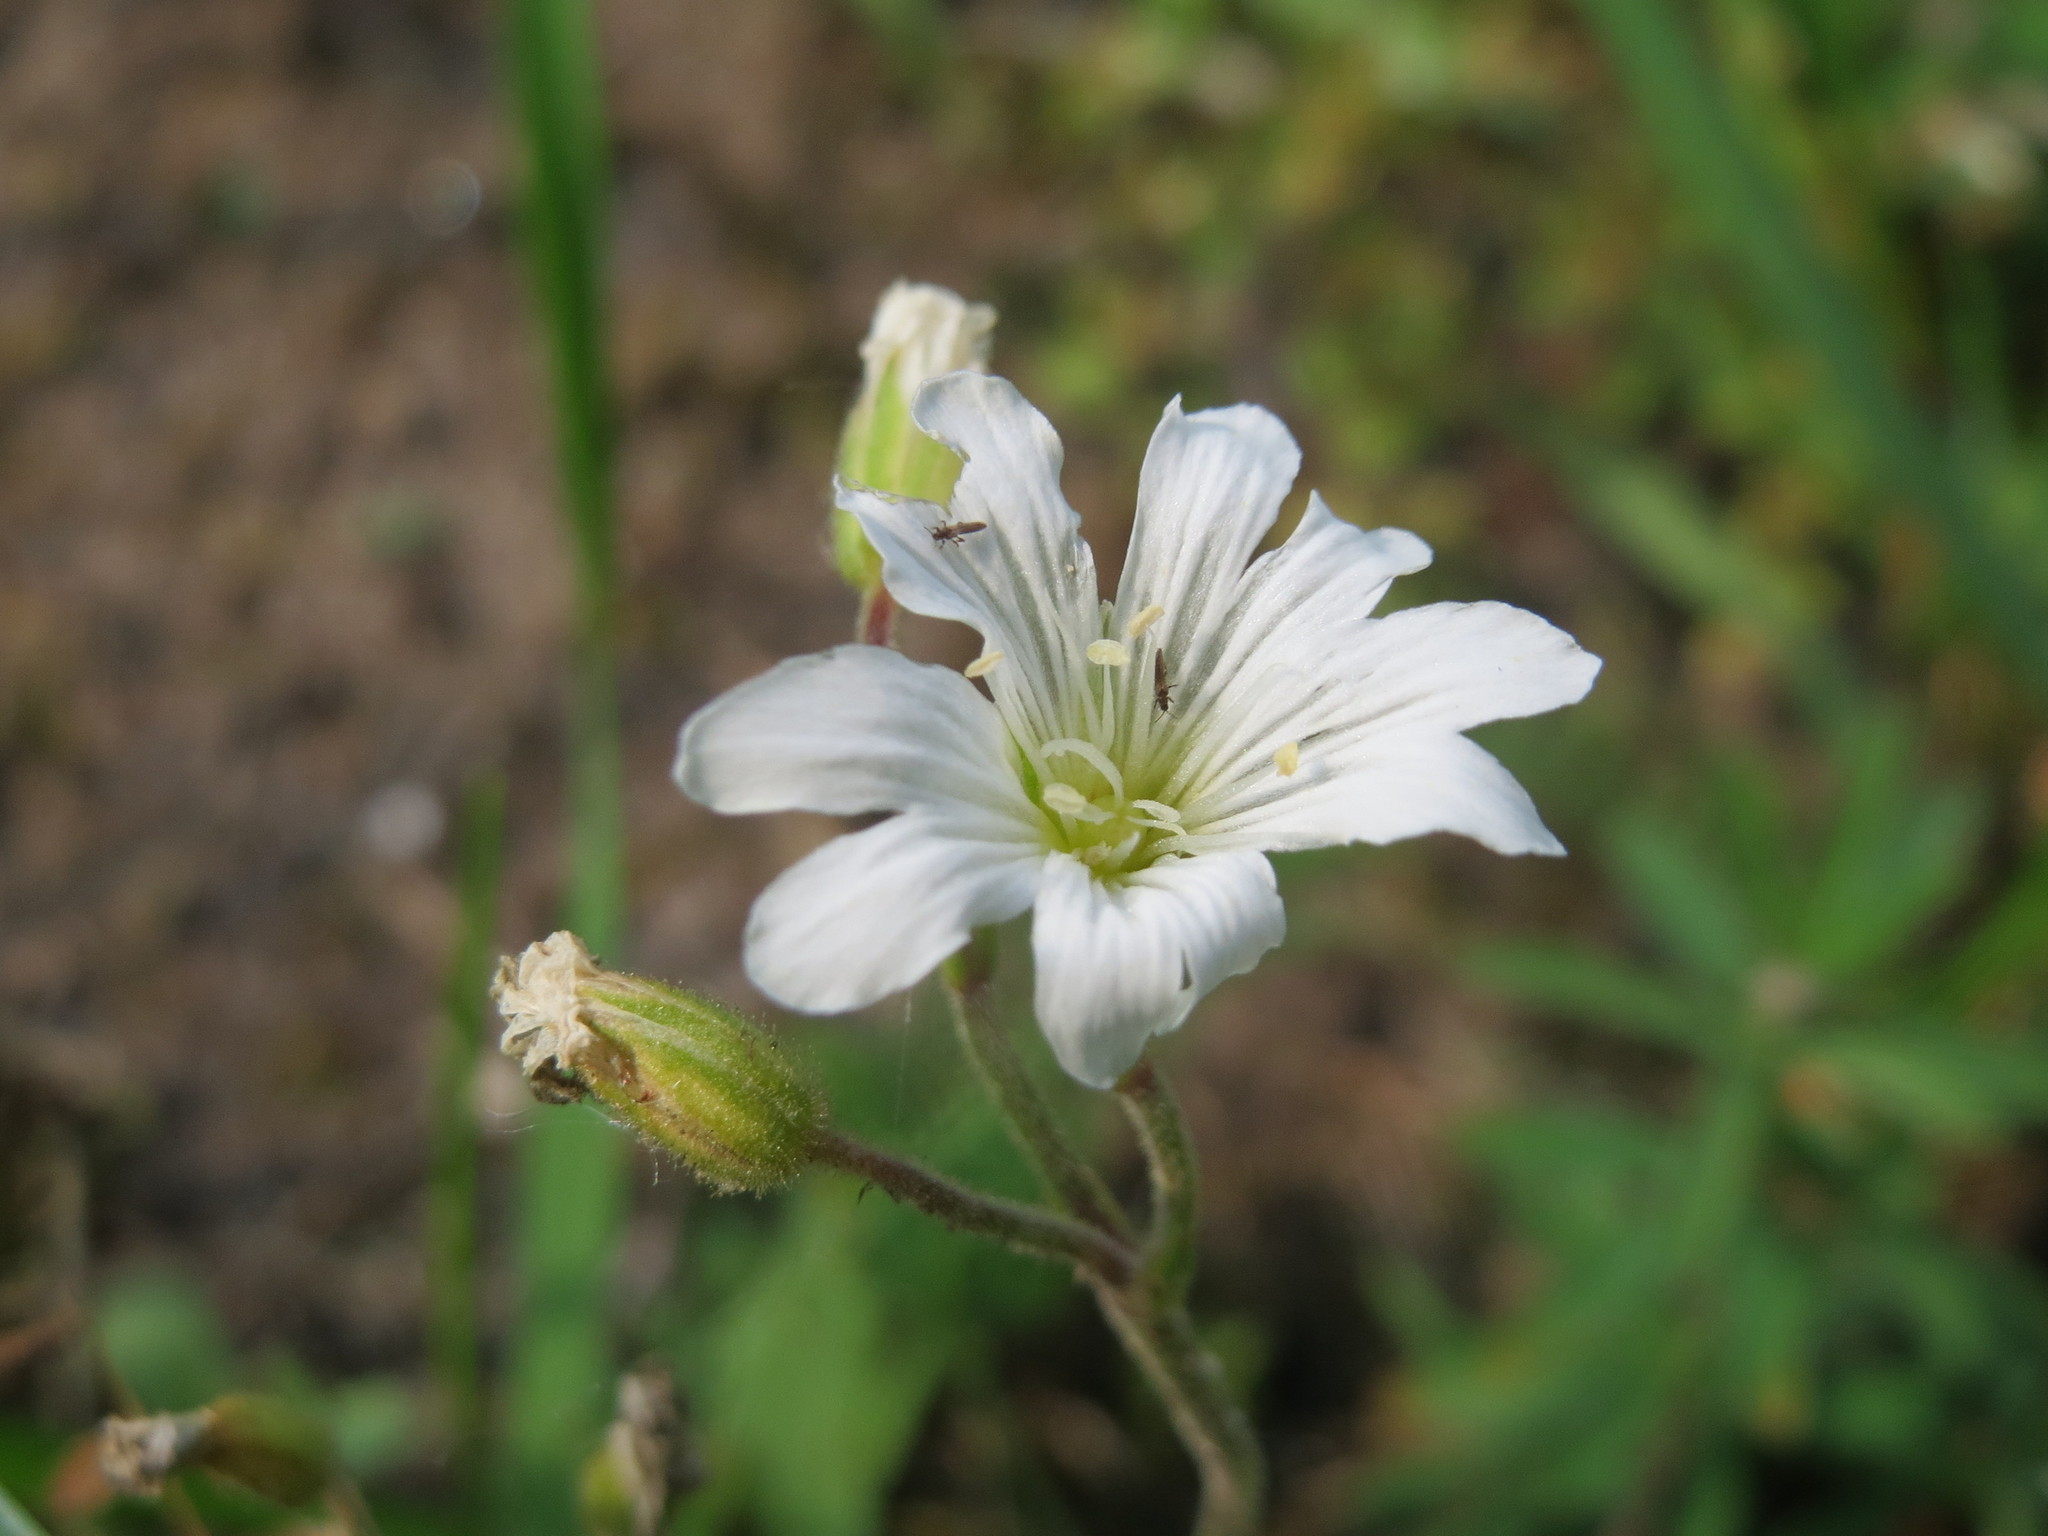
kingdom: Plantae
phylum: Tracheophyta
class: Magnoliopsida
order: Caryophyllales
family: Caryophyllaceae
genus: Cerastium
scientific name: Cerastium arvense
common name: Field mouse-ear
